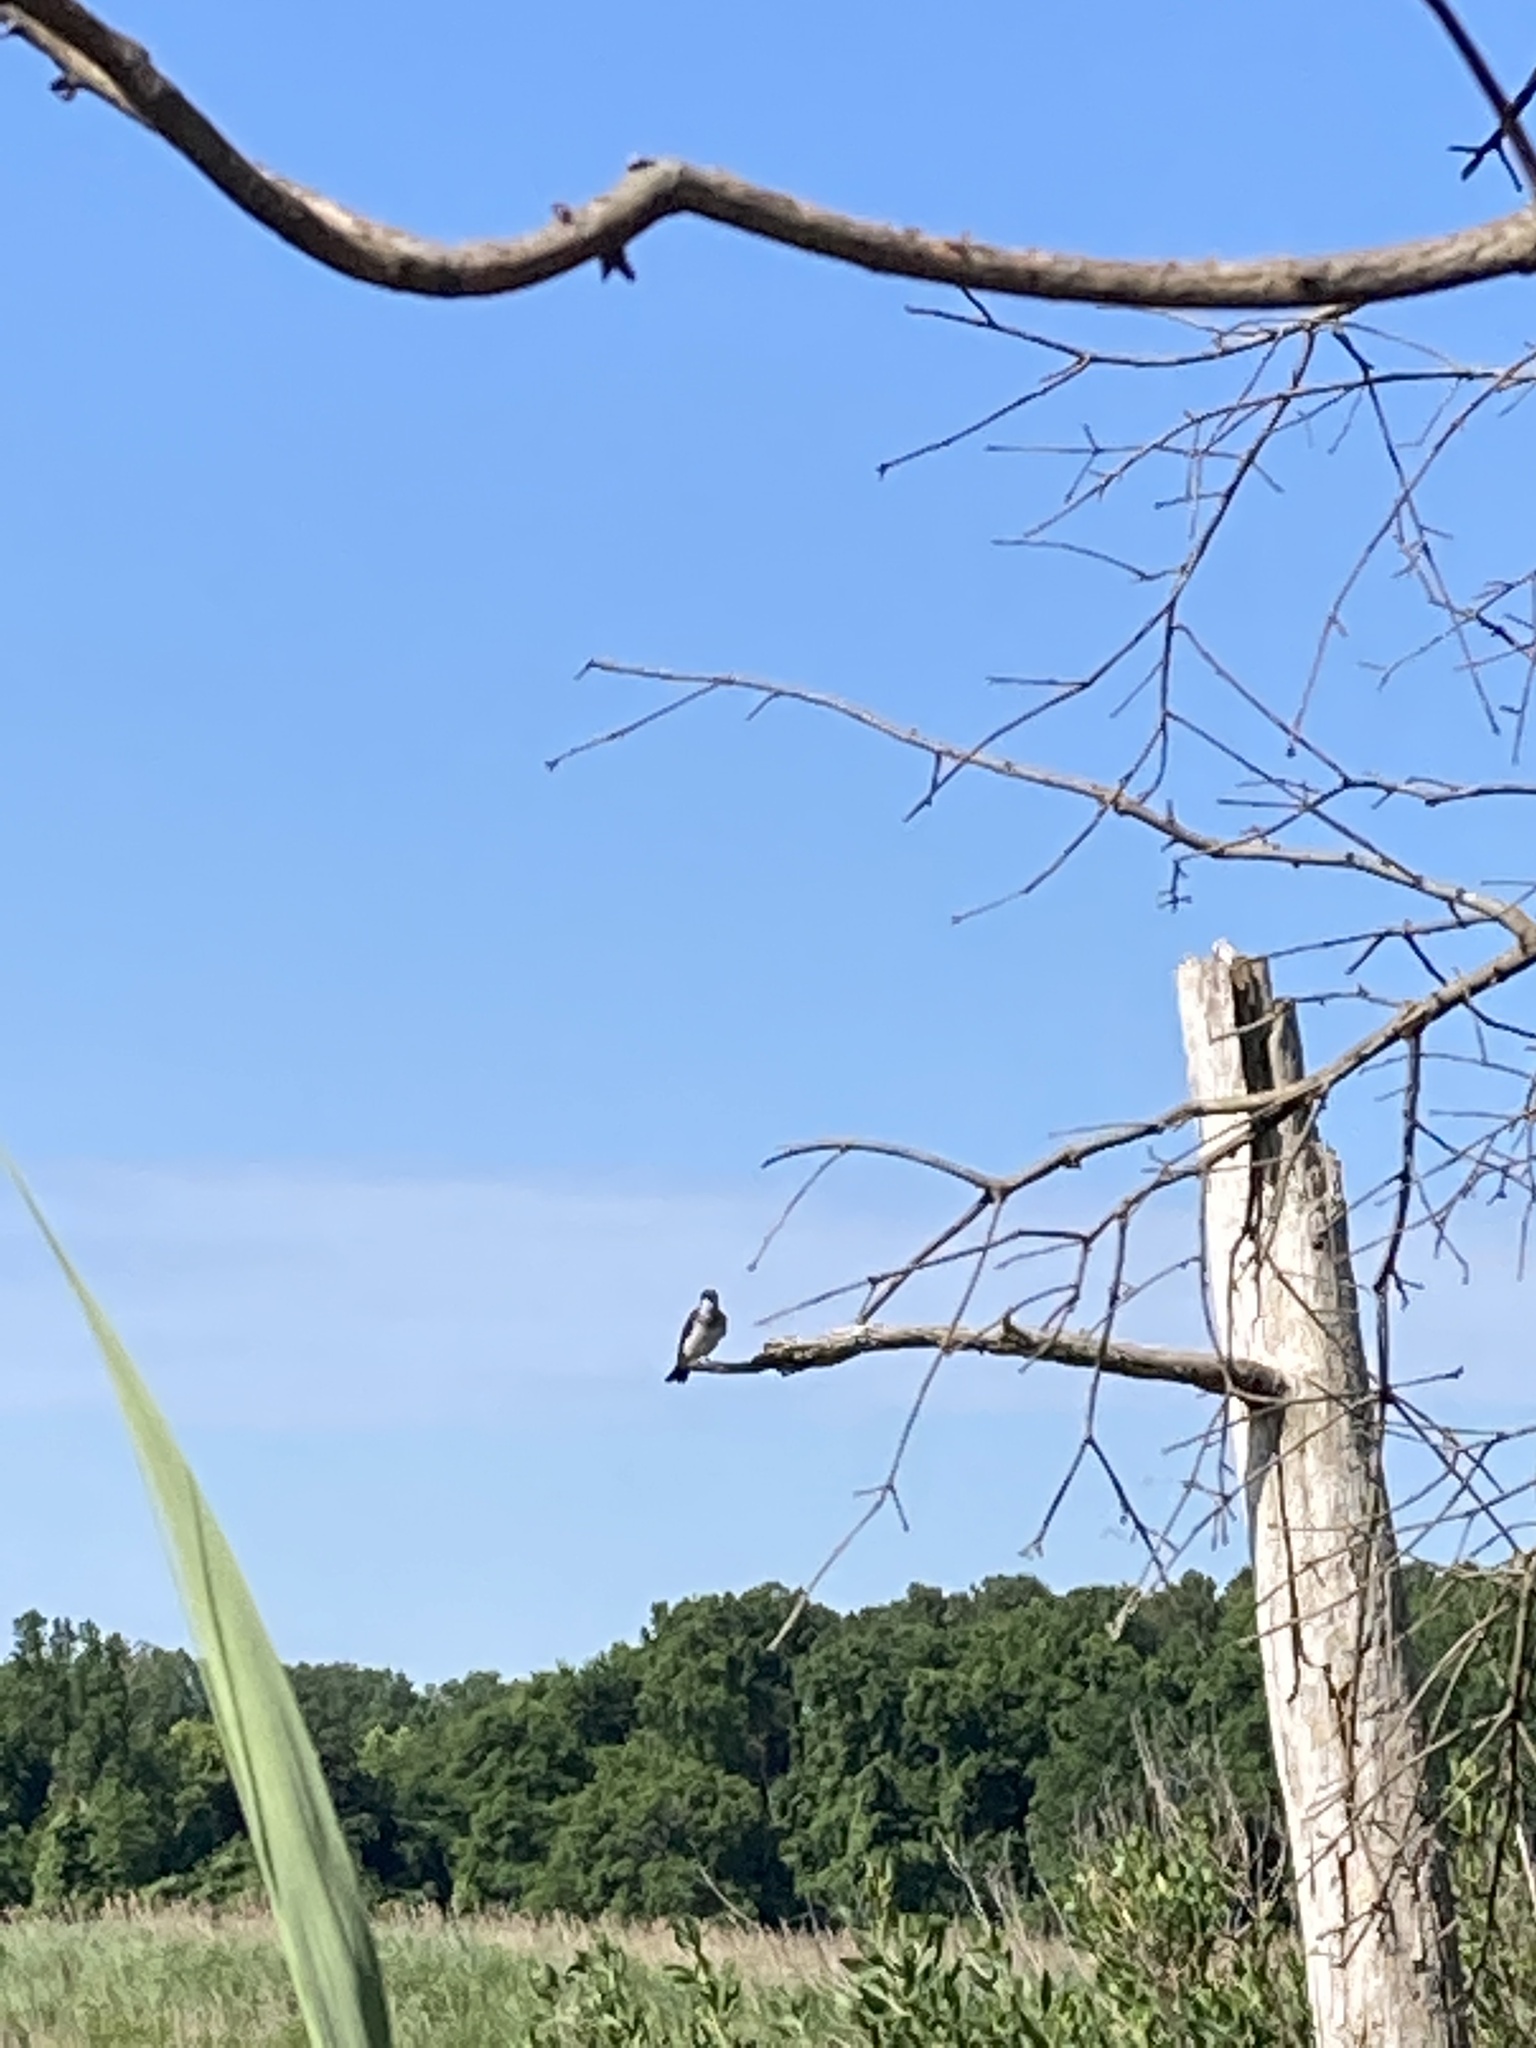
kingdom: Animalia
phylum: Chordata
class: Aves
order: Passeriformes
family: Tyrannidae
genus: Tyrannus
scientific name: Tyrannus tyrannus
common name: Eastern kingbird
